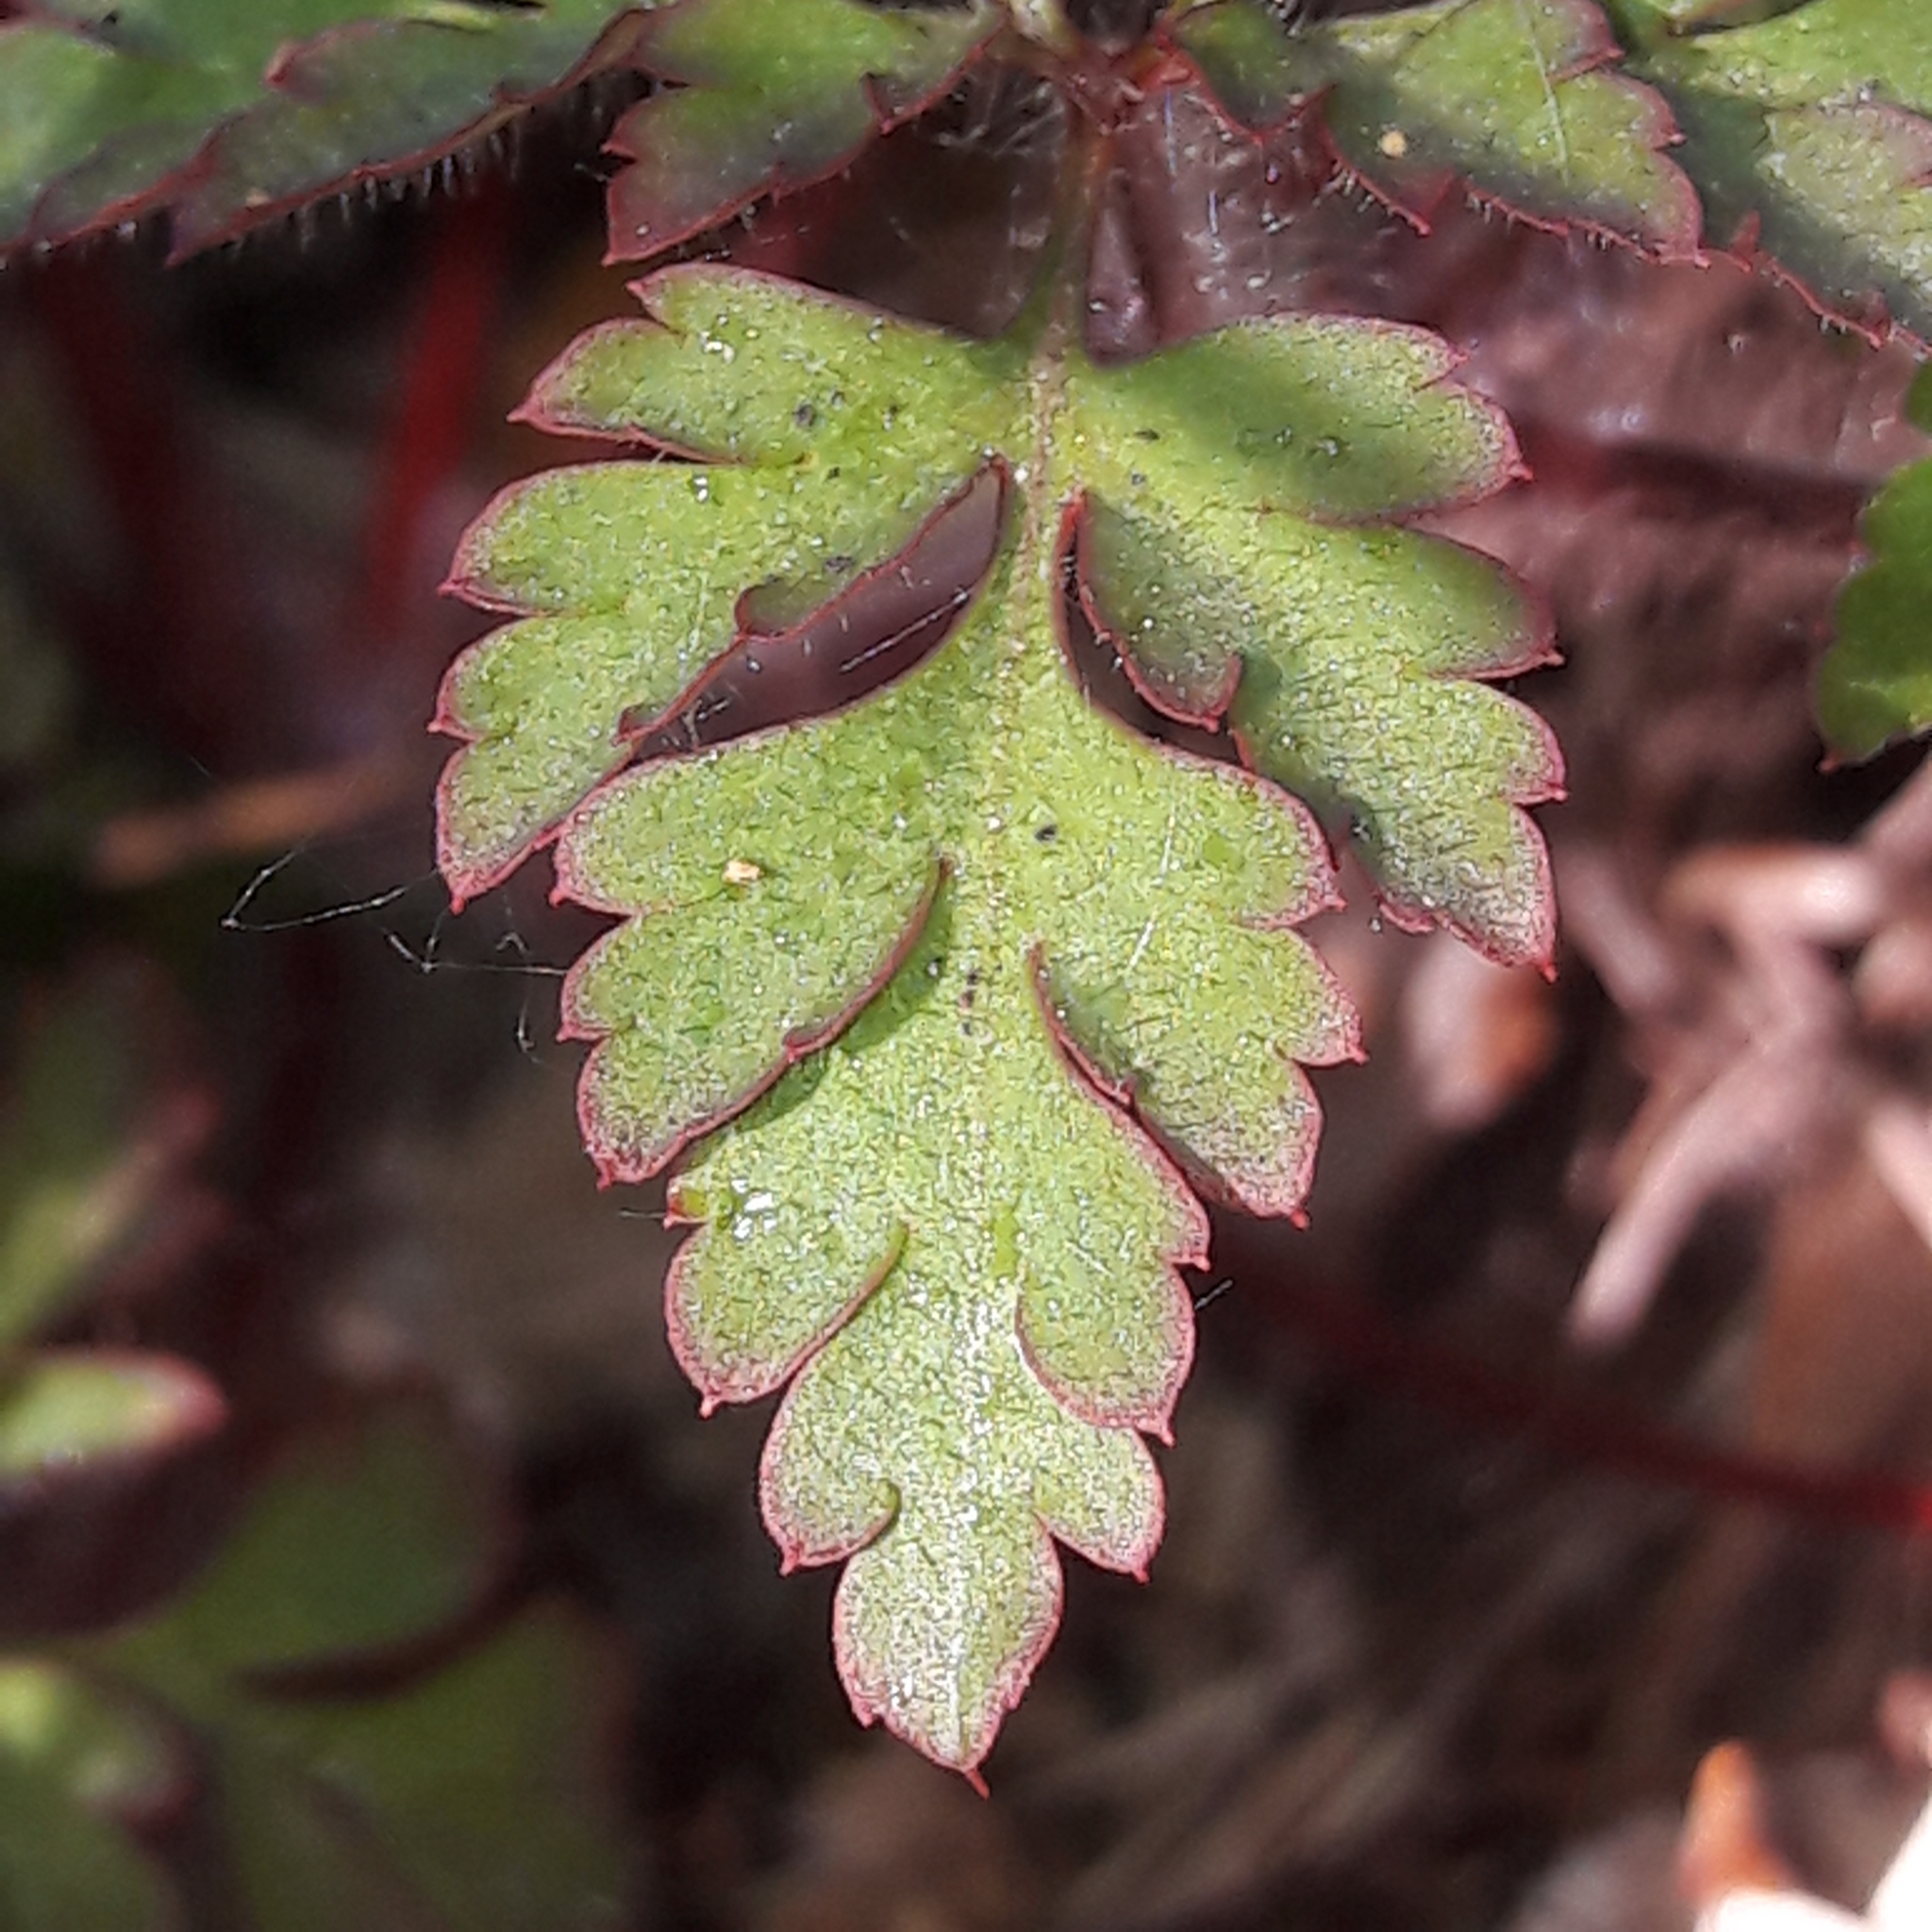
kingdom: Plantae
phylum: Tracheophyta
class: Magnoliopsida
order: Geraniales
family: Geraniaceae
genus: Geranium
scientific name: Geranium robertianum
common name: Herb-robert
